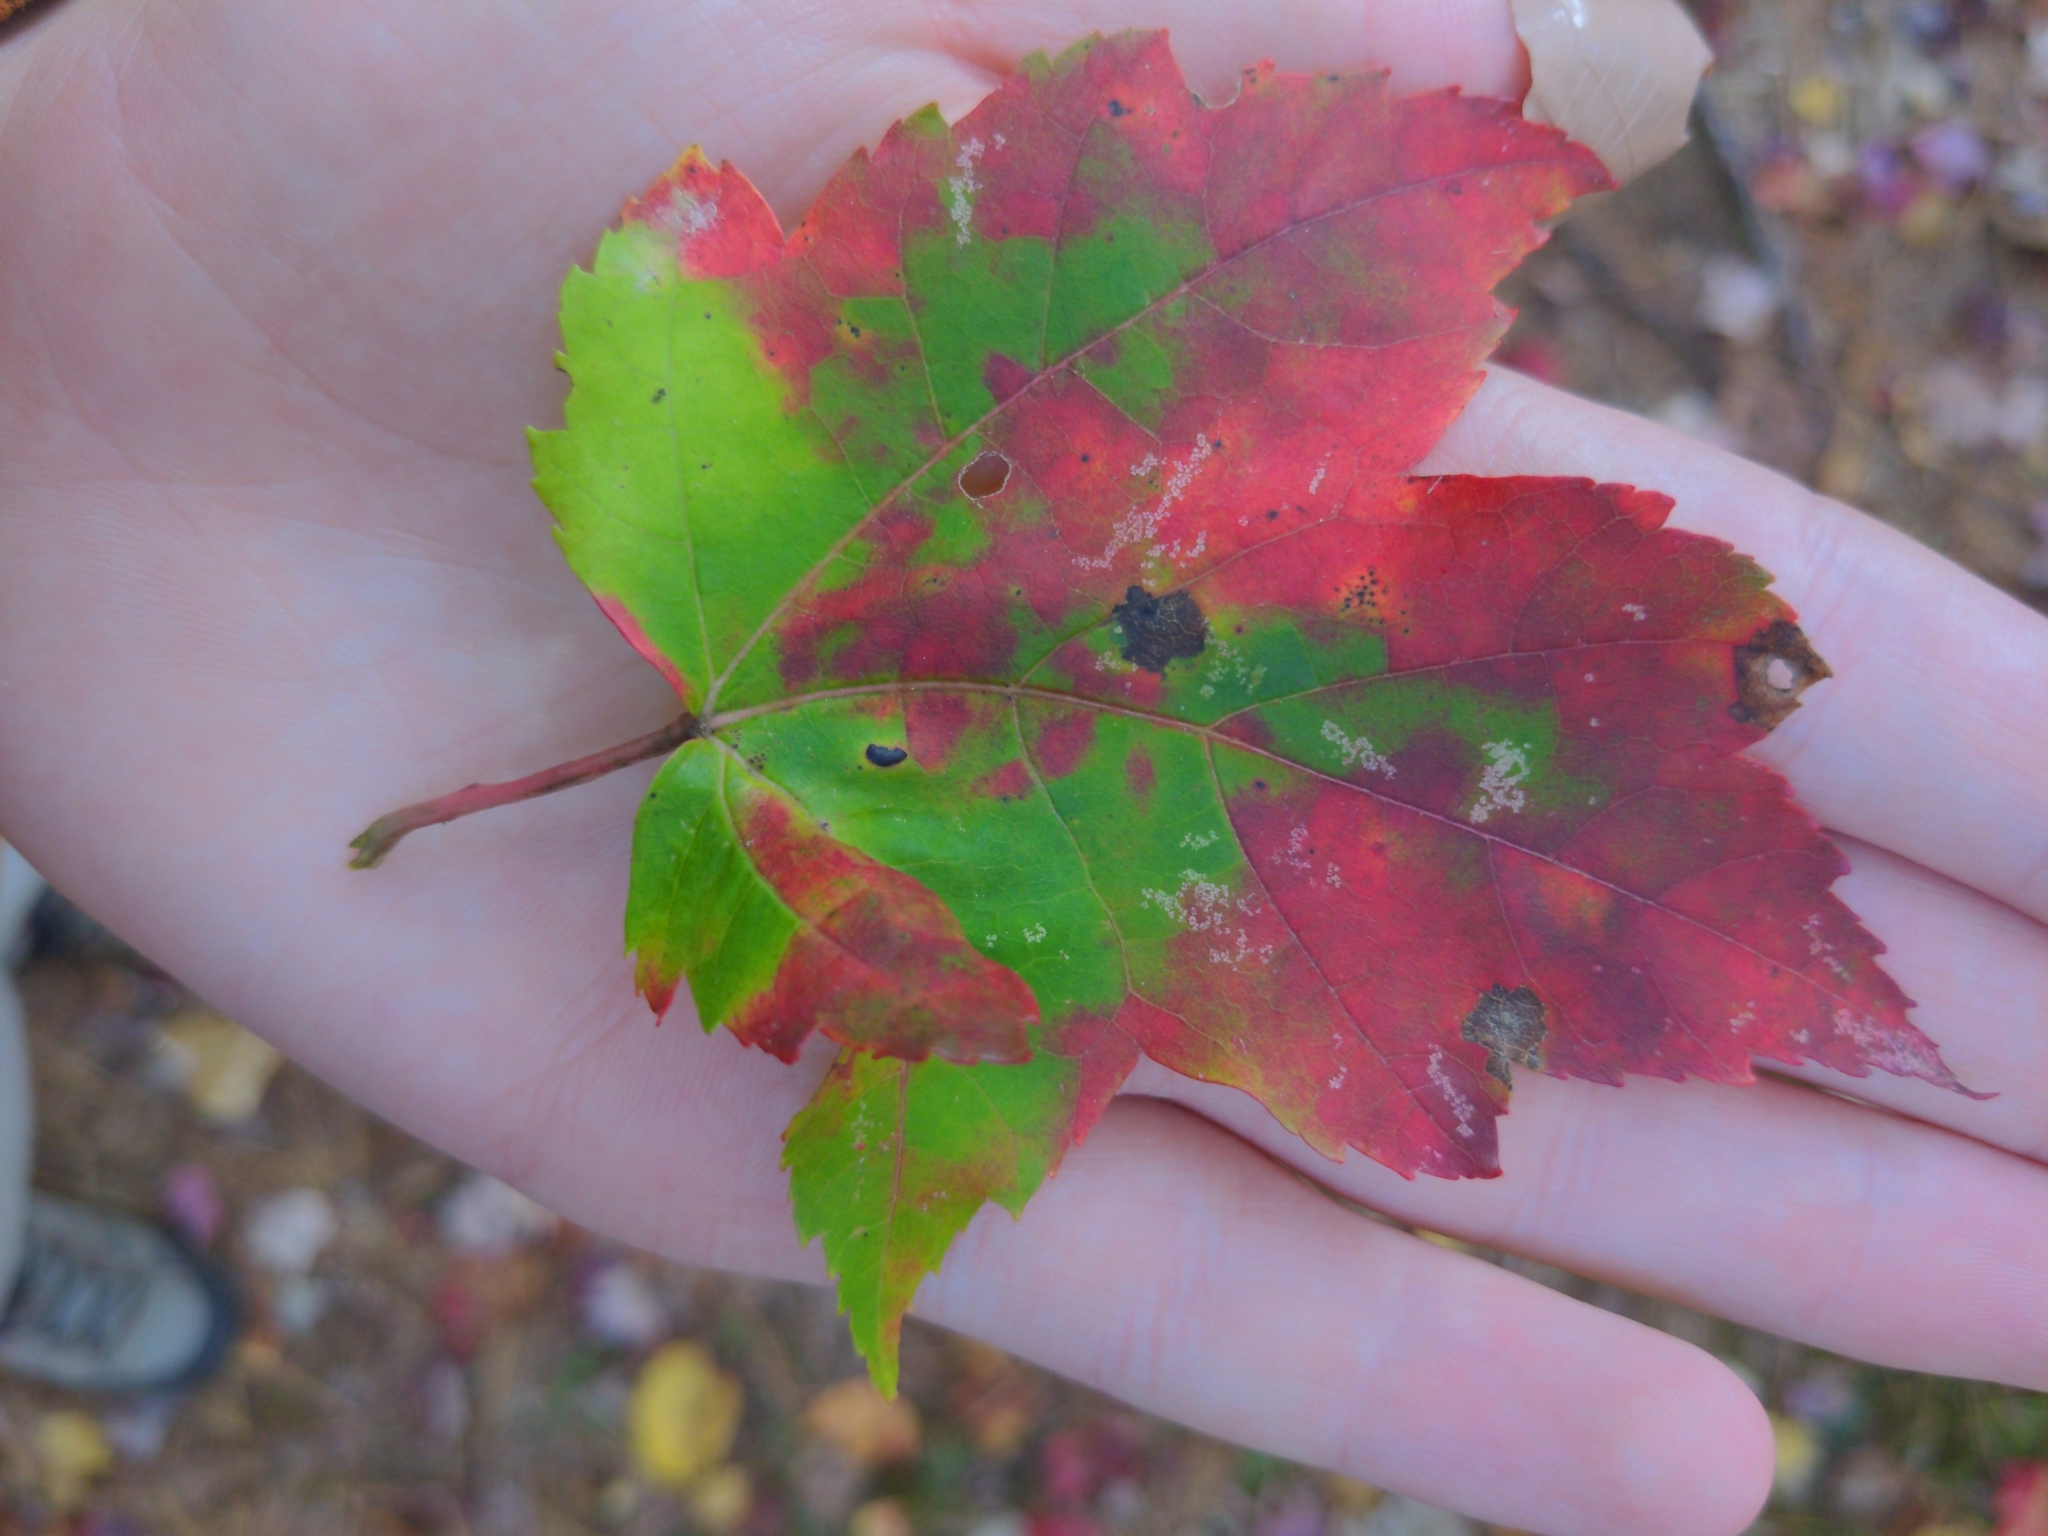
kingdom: Plantae
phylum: Tracheophyta
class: Magnoliopsida
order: Sapindales
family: Sapindaceae
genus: Acer
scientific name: Acer rubrum
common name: Red maple
